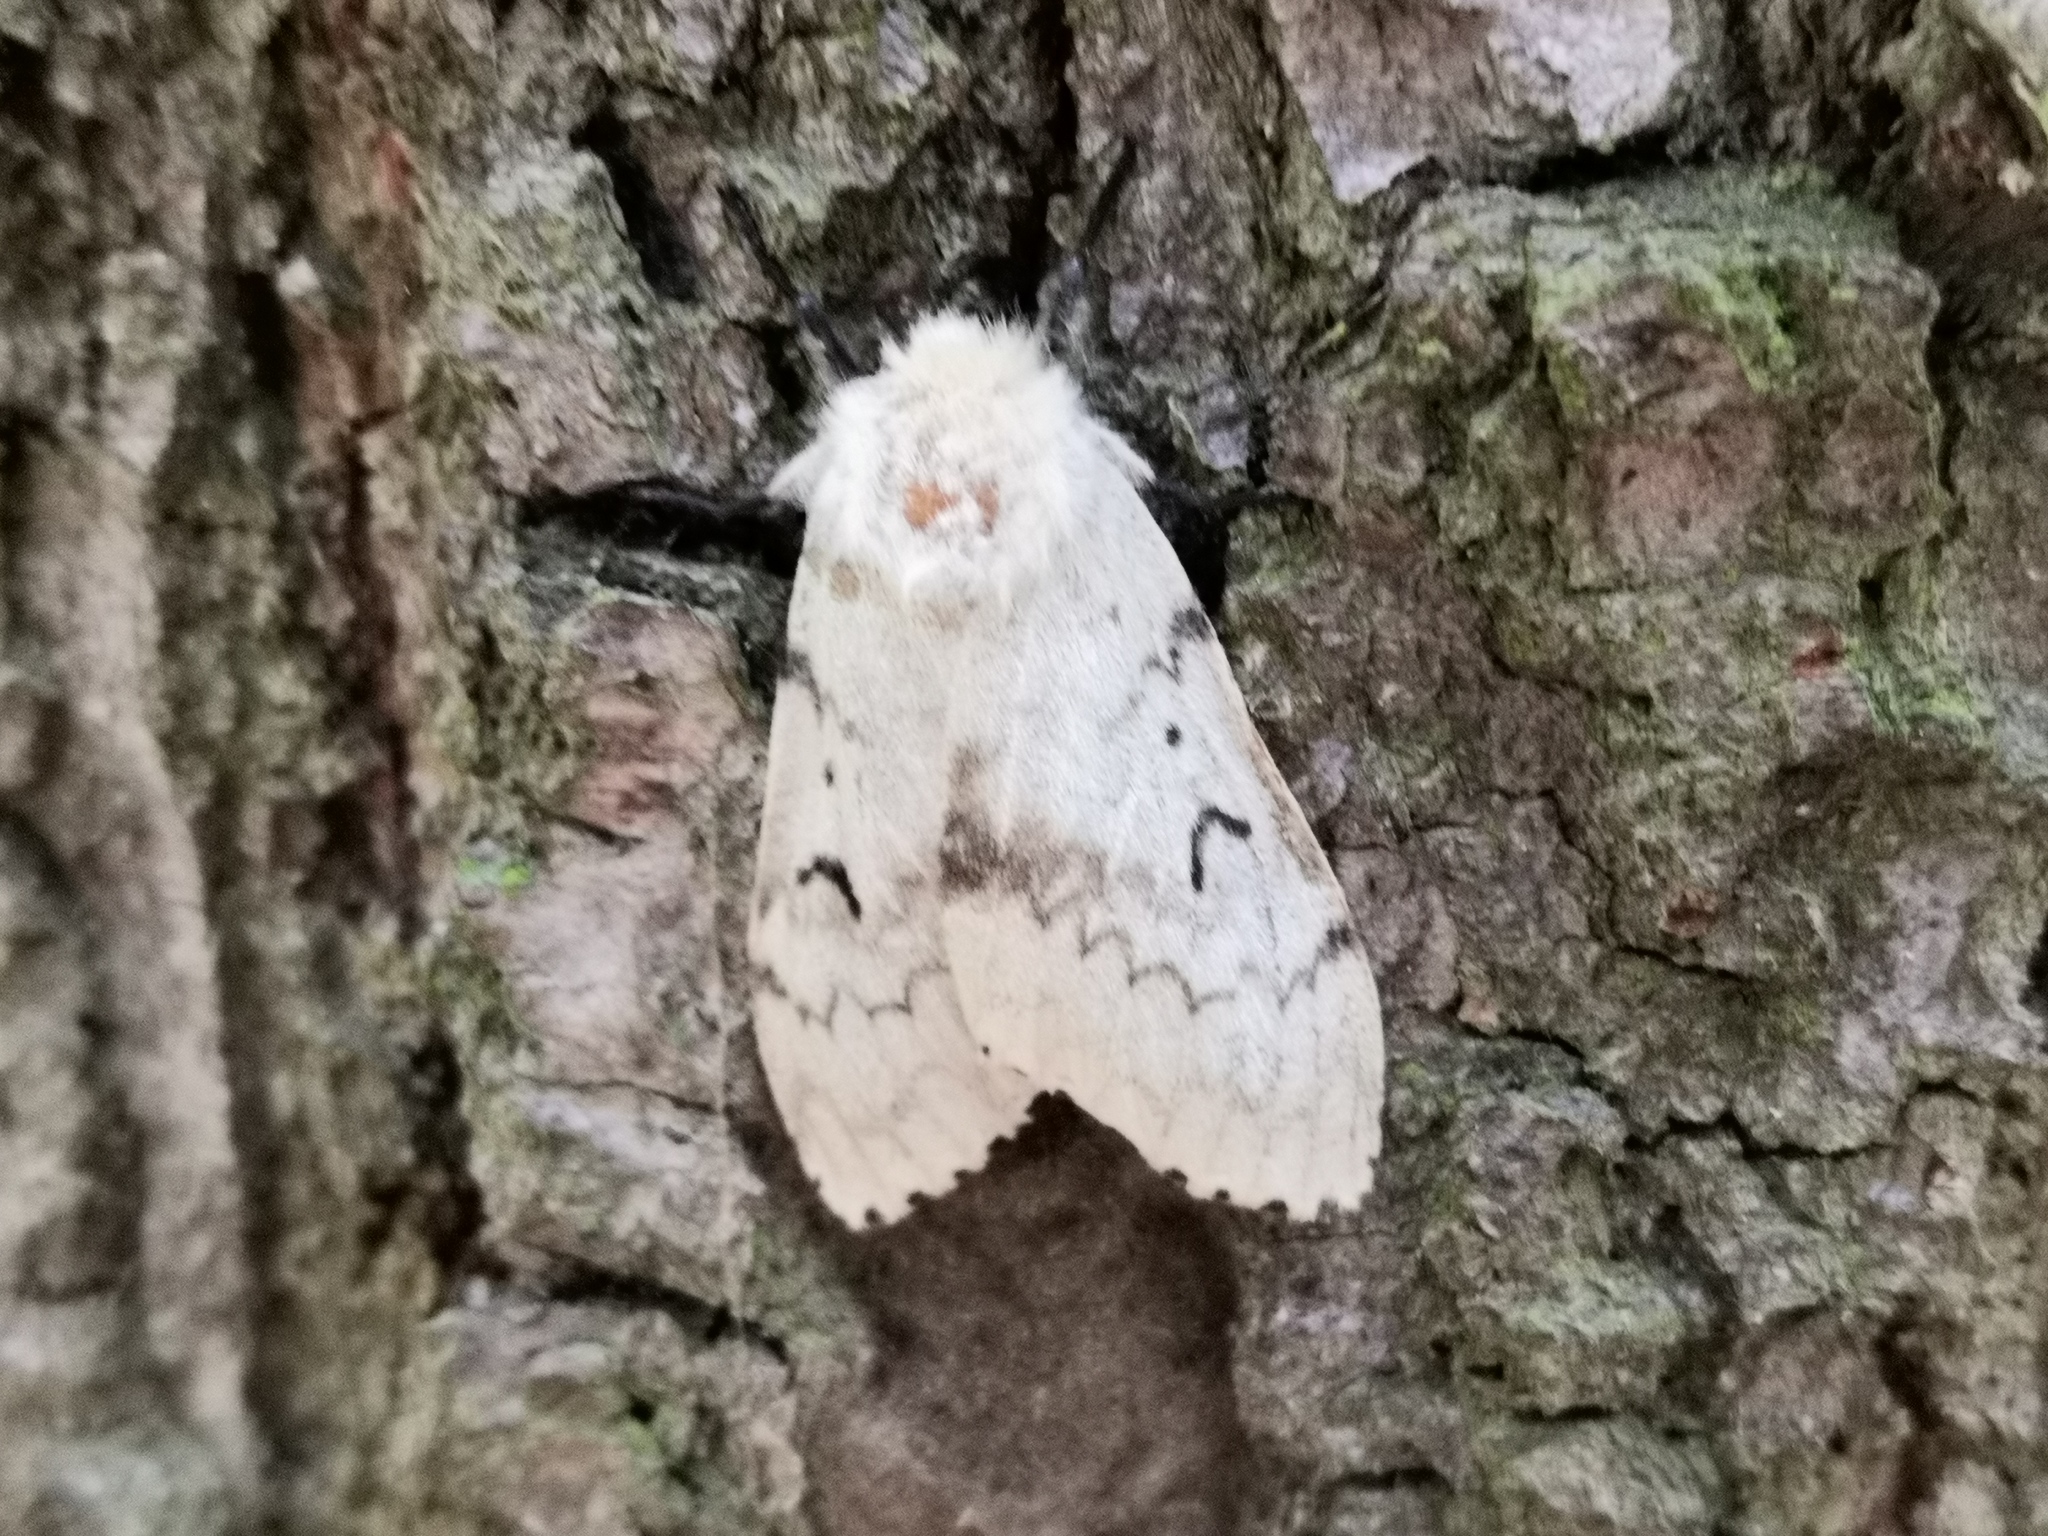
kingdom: Animalia
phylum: Arthropoda
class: Insecta
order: Lepidoptera
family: Erebidae
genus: Lymantria
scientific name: Lymantria dispar
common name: Gypsy moth
